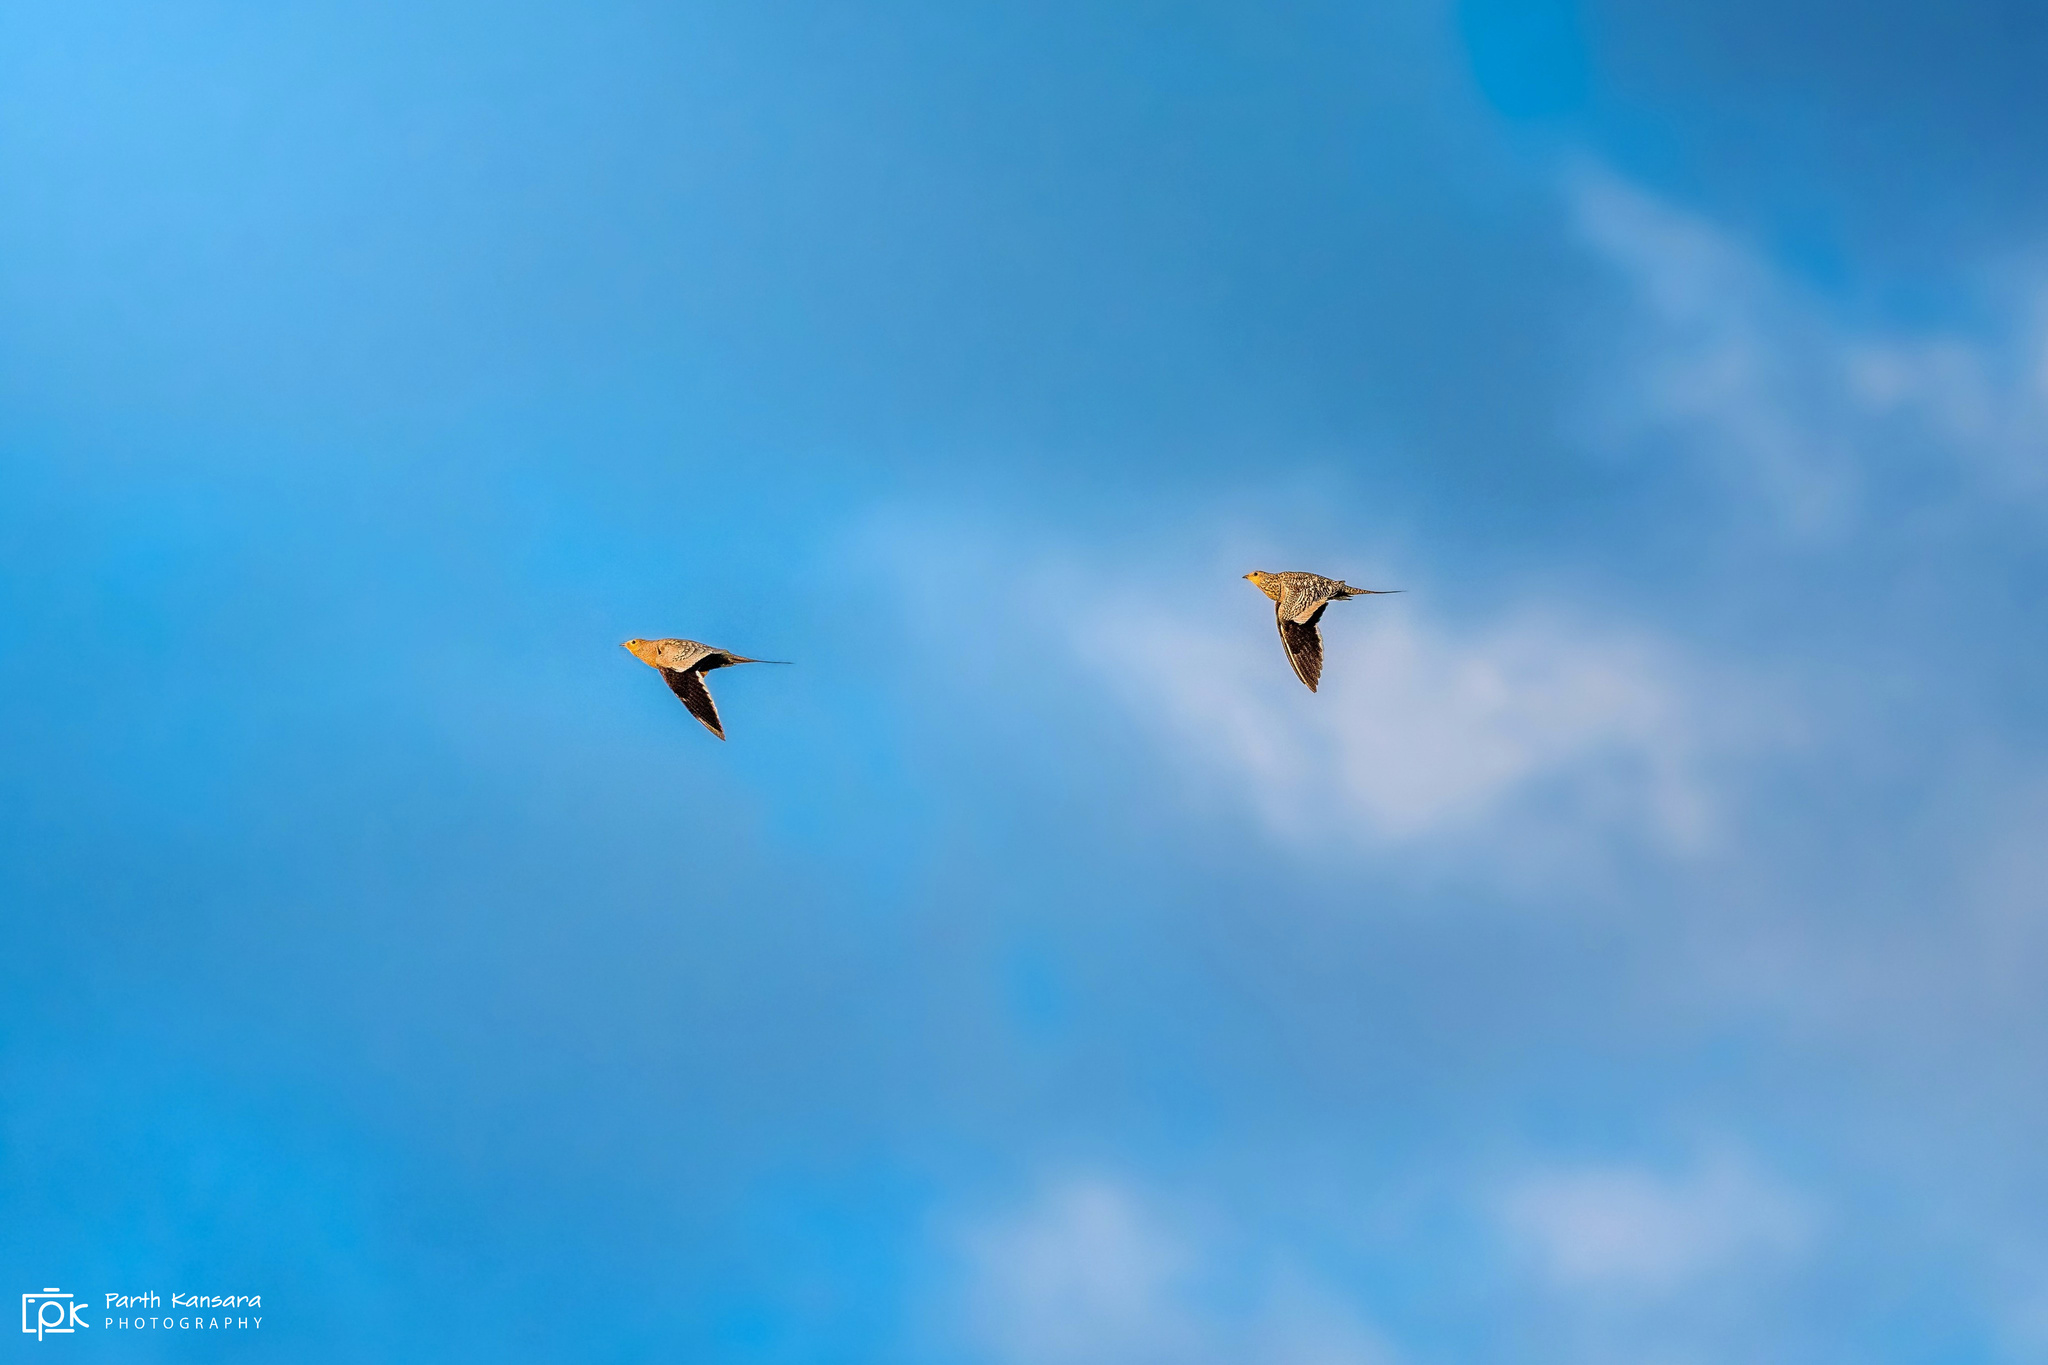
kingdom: Animalia
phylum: Chordata
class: Aves
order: Pteroclidiformes
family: Pteroclididae
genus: Pterocles
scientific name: Pterocles exustus
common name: Chestnut-bellied sandgrouse
